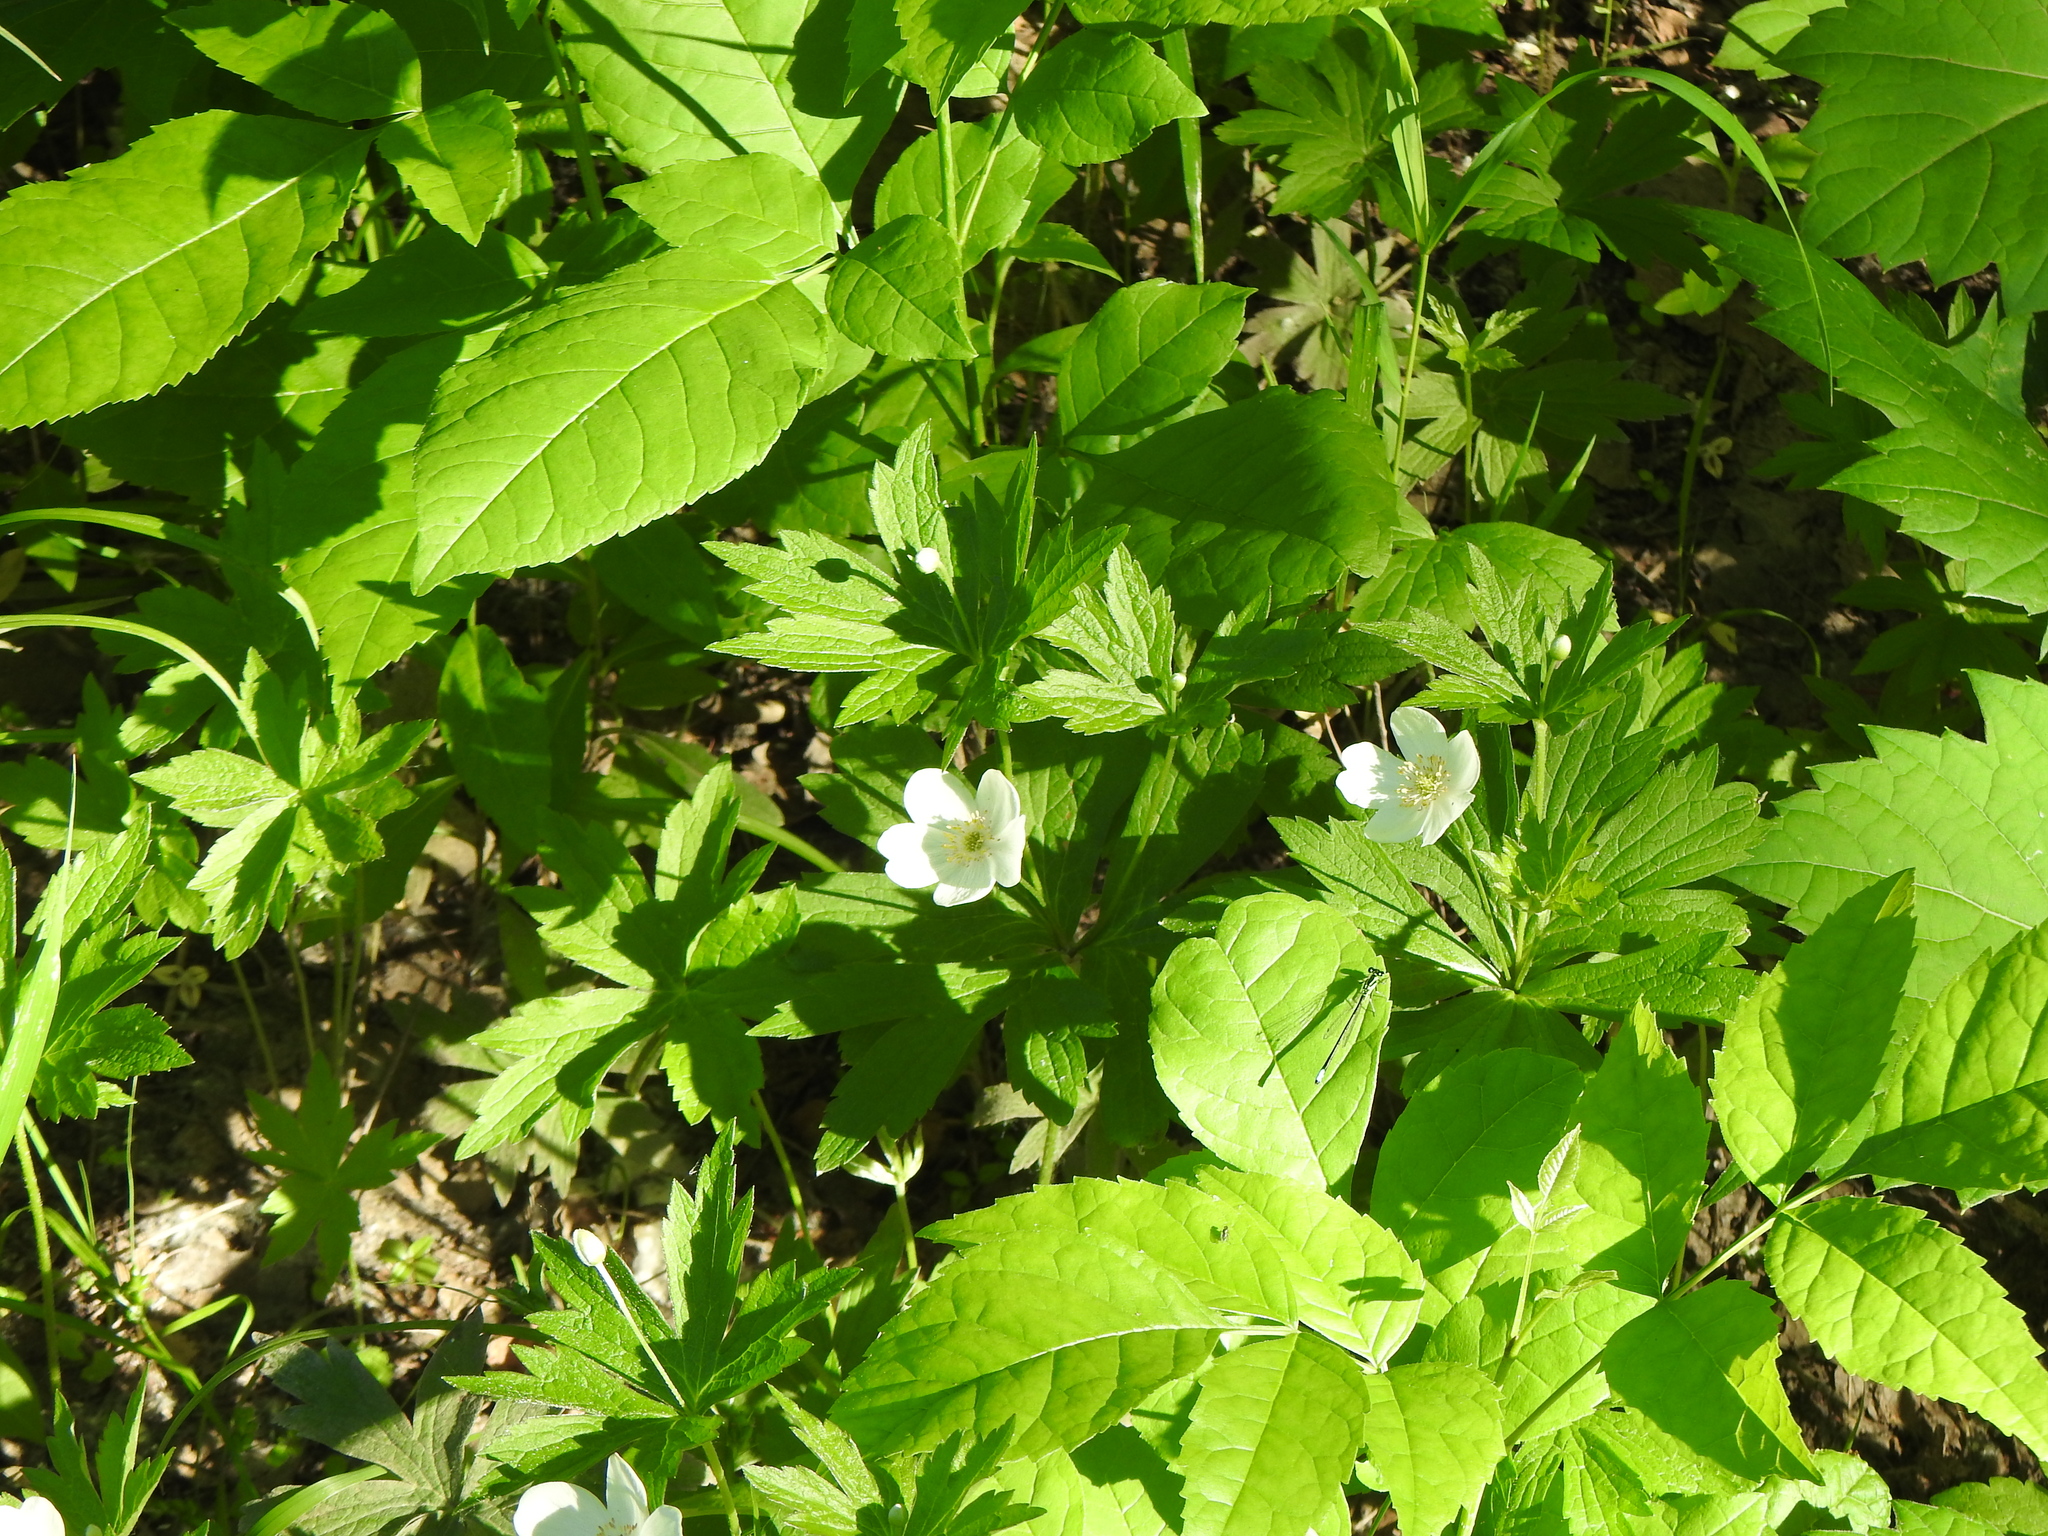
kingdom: Plantae
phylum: Tracheophyta
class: Magnoliopsida
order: Ranunculales
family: Ranunculaceae
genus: Anemonastrum
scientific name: Anemonastrum canadense
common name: Canada anemone
